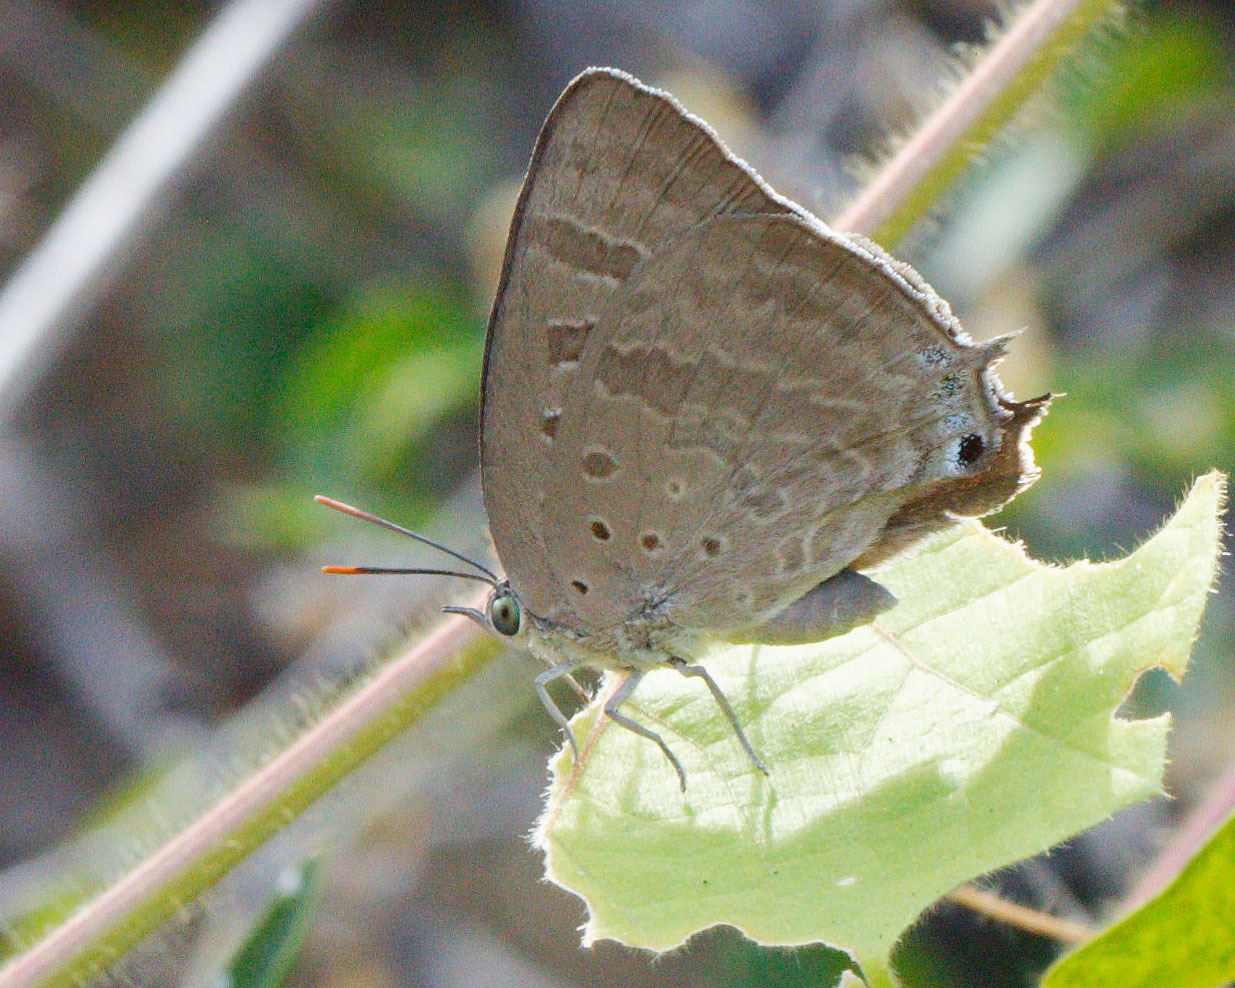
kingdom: Animalia
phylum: Arthropoda
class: Insecta
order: Lepidoptera
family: Lycaenidae
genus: Arhopala
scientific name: Arhopala
